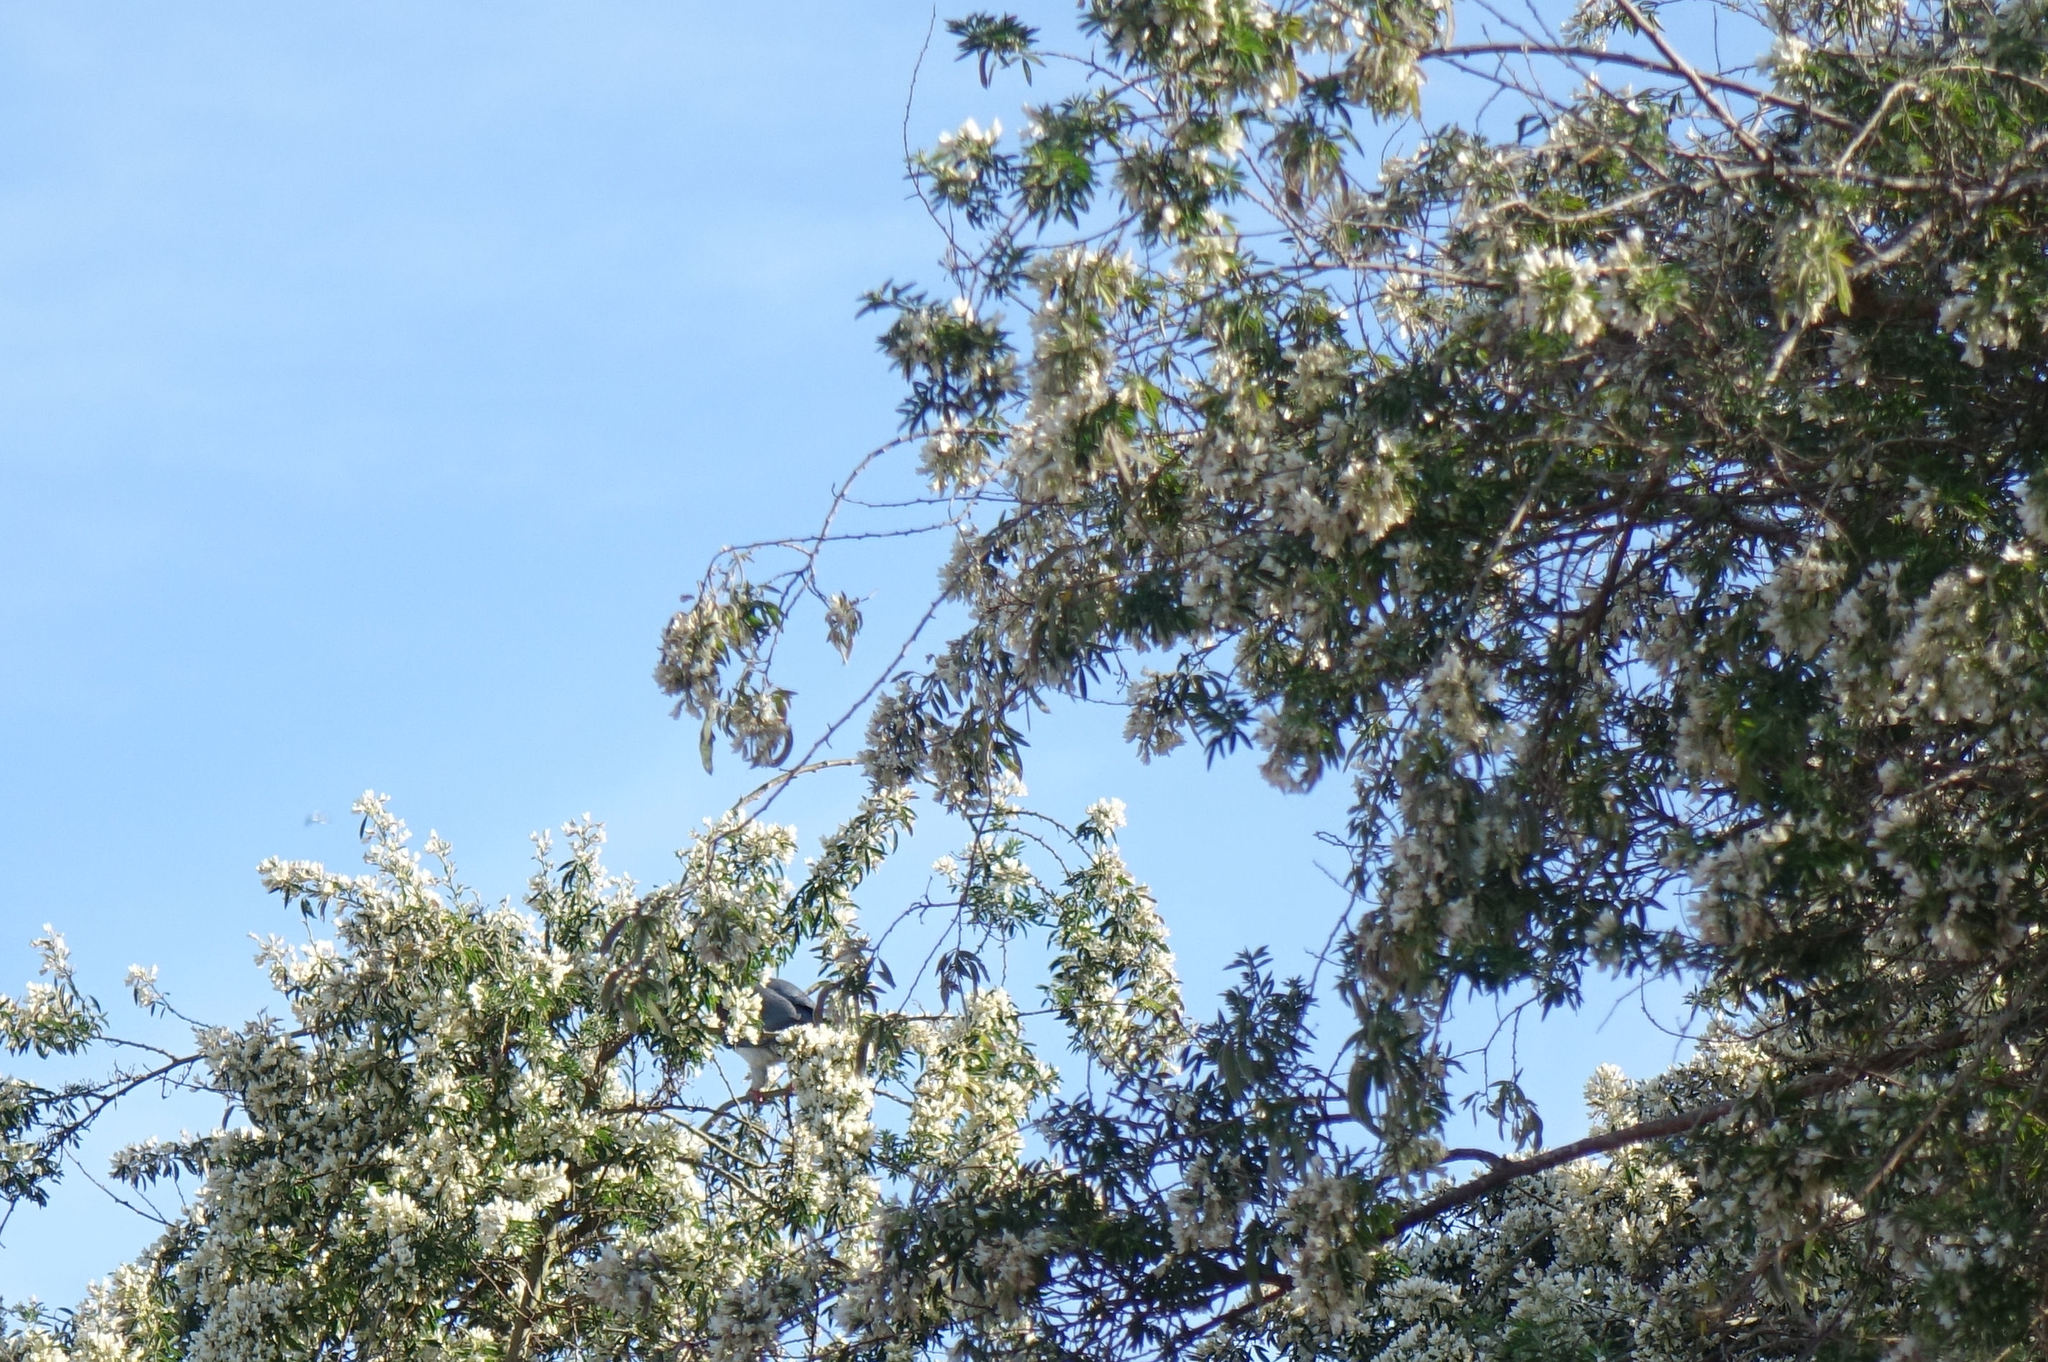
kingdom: Animalia
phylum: Chordata
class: Aves
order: Columbiformes
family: Columbidae
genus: Hemiphaga
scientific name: Hemiphaga novaeseelandiae
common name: New zealand pigeon
